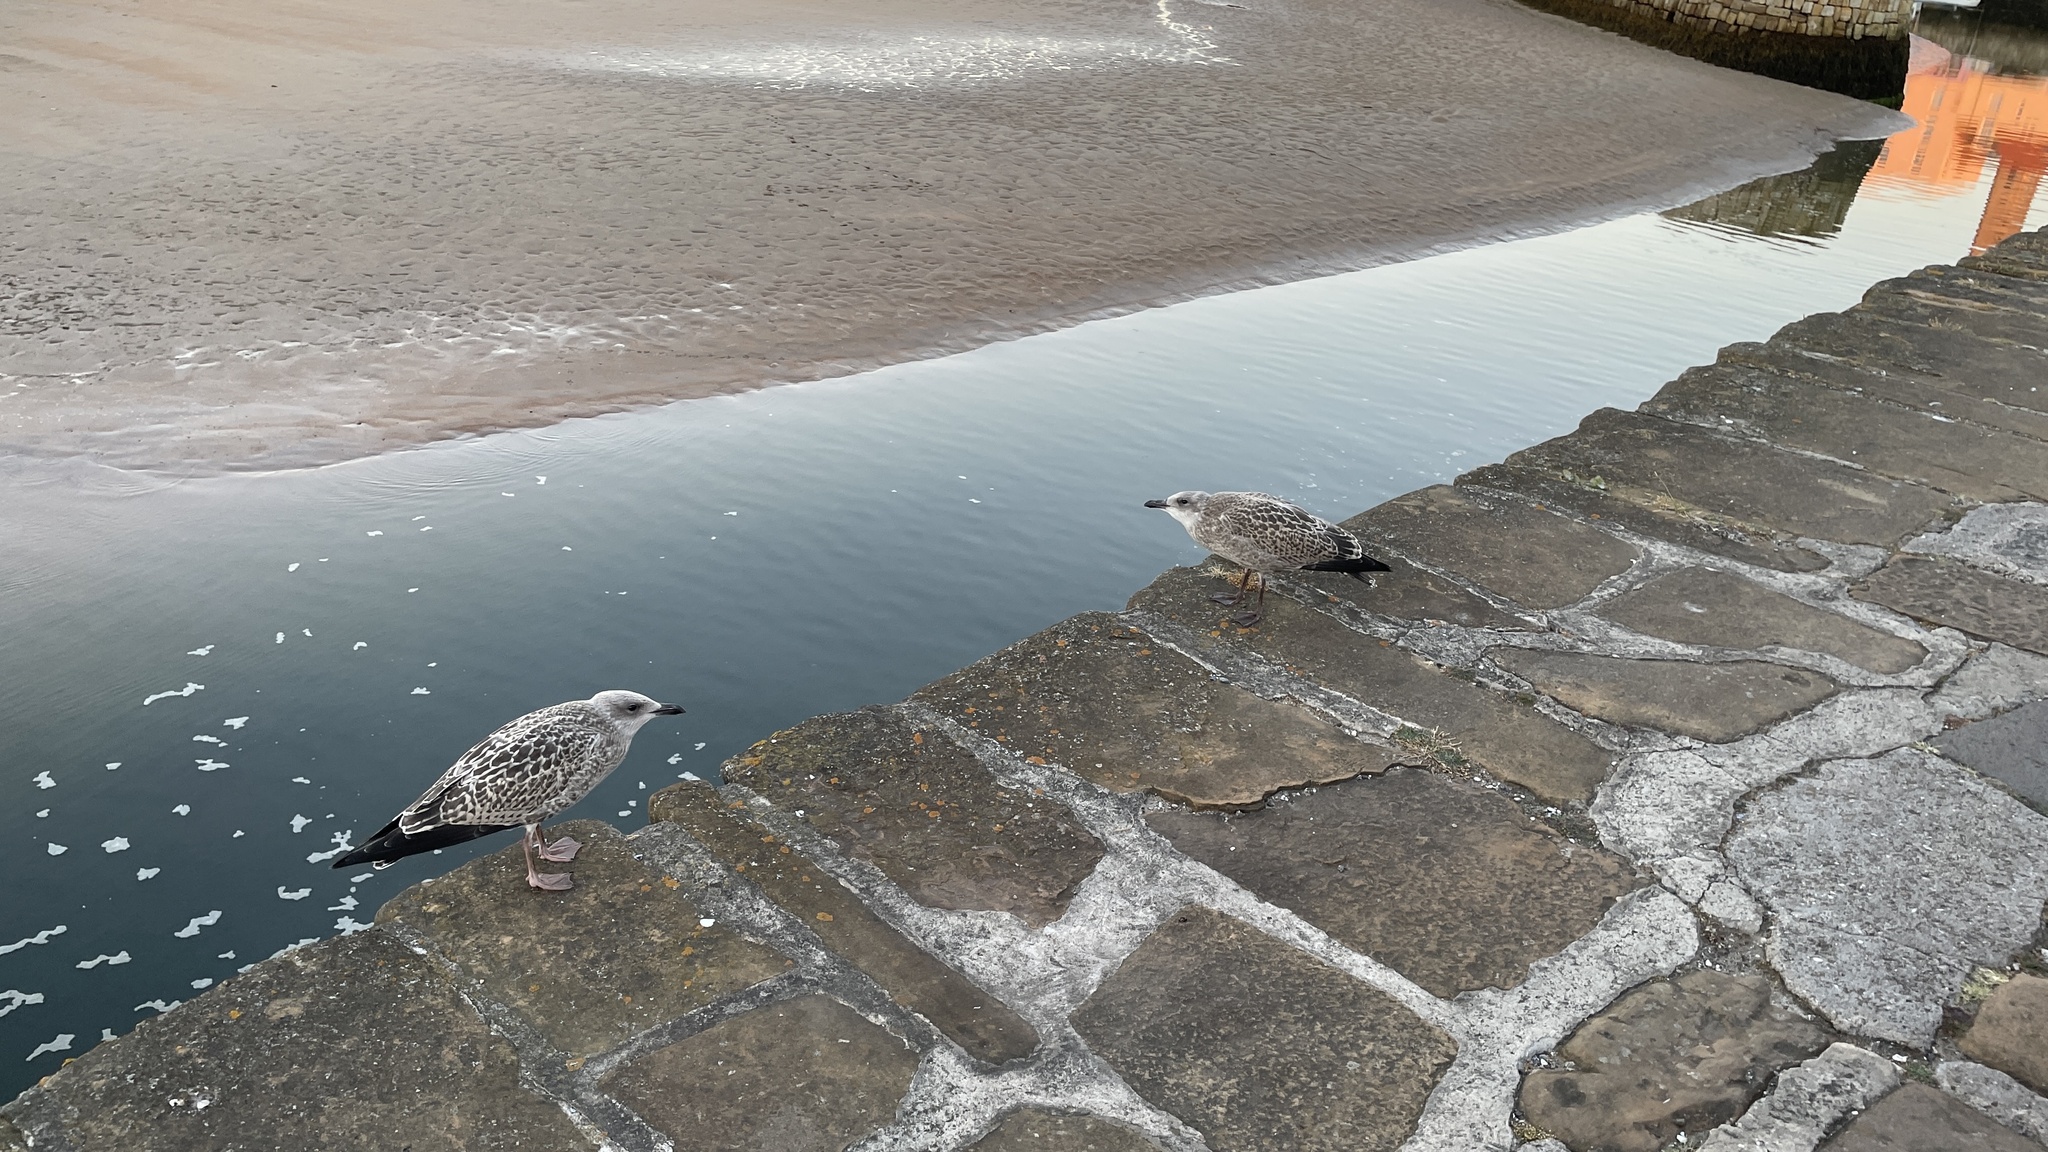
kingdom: Animalia
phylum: Chordata
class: Aves
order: Charadriiformes
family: Laridae
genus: Larus
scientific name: Larus argentatus
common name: Herring gull
